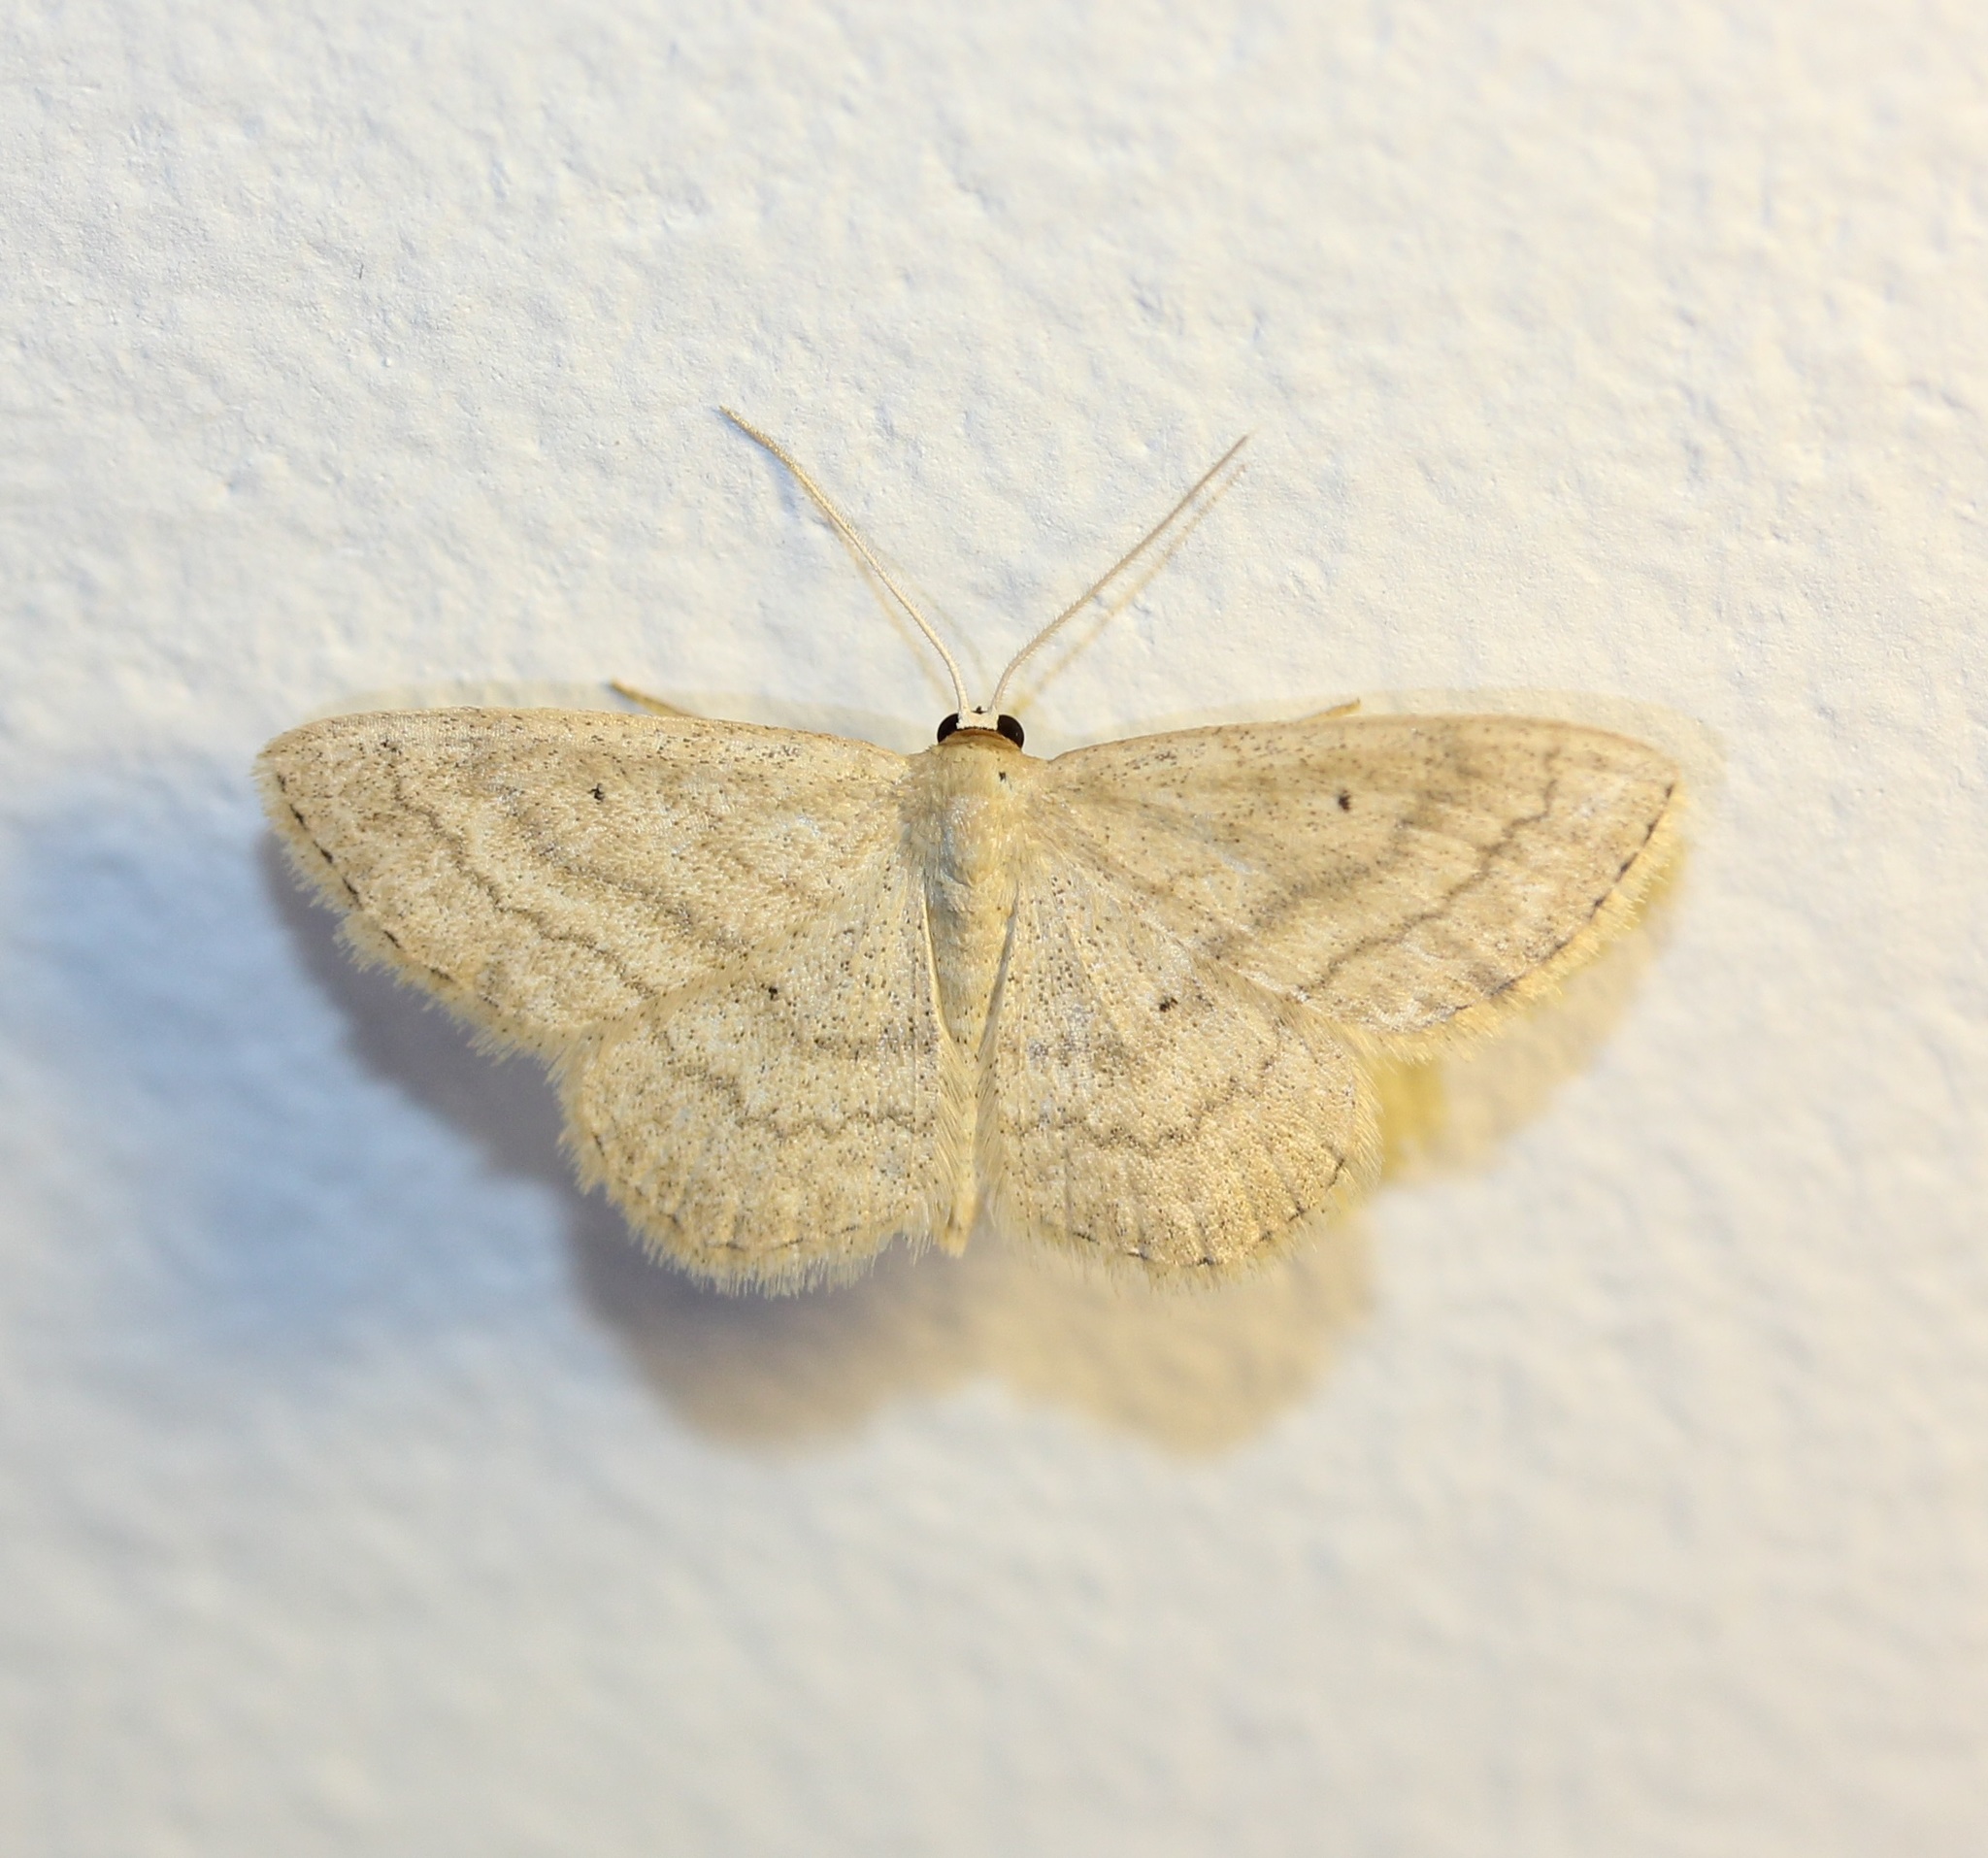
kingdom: Animalia
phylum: Arthropoda
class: Insecta
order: Lepidoptera
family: Geometridae
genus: Scopula
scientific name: Scopula inductata
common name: Soft-lined wave
